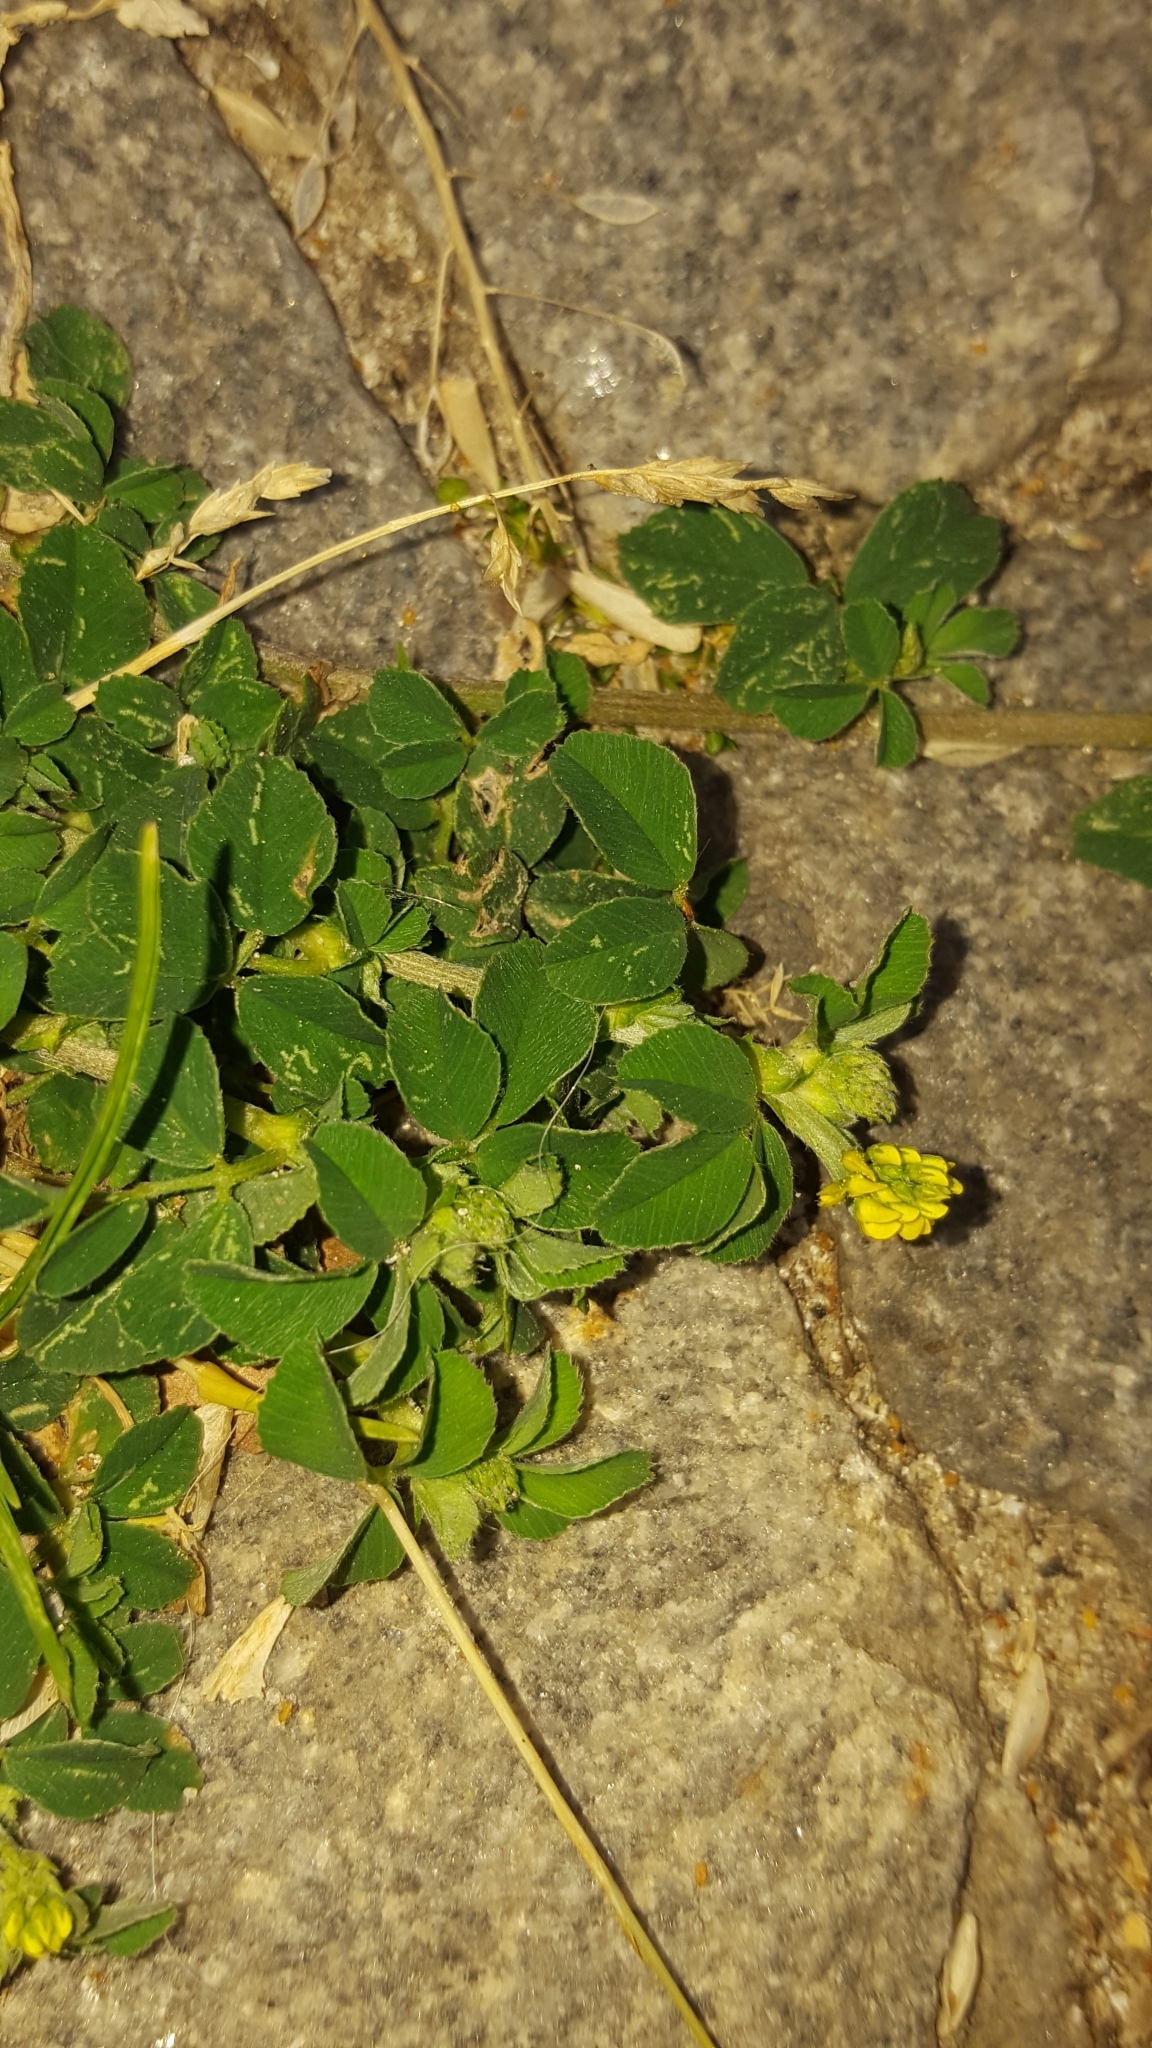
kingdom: Plantae
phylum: Tracheophyta
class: Magnoliopsida
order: Fabales
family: Fabaceae
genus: Medicago
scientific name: Medicago lupulina
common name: Black medick
